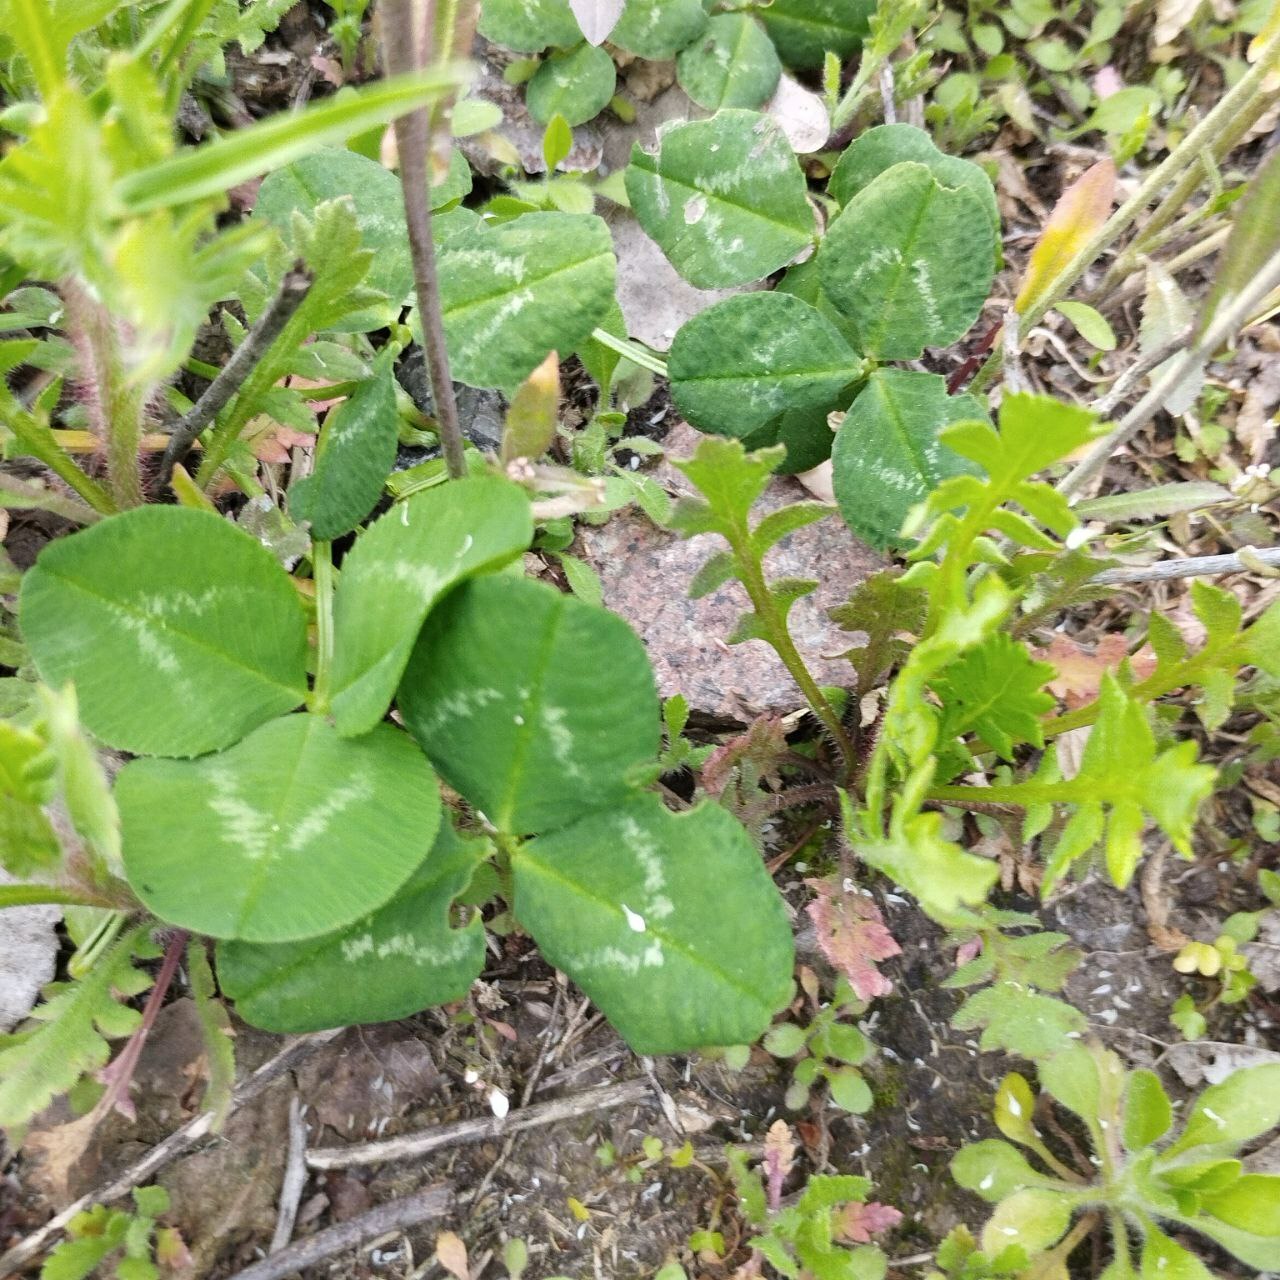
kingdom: Plantae
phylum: Tracheophyta
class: Magnoliopsida
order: Fabales
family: Fabaceae
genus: Trifolium
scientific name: Trifolium repens
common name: White clover
